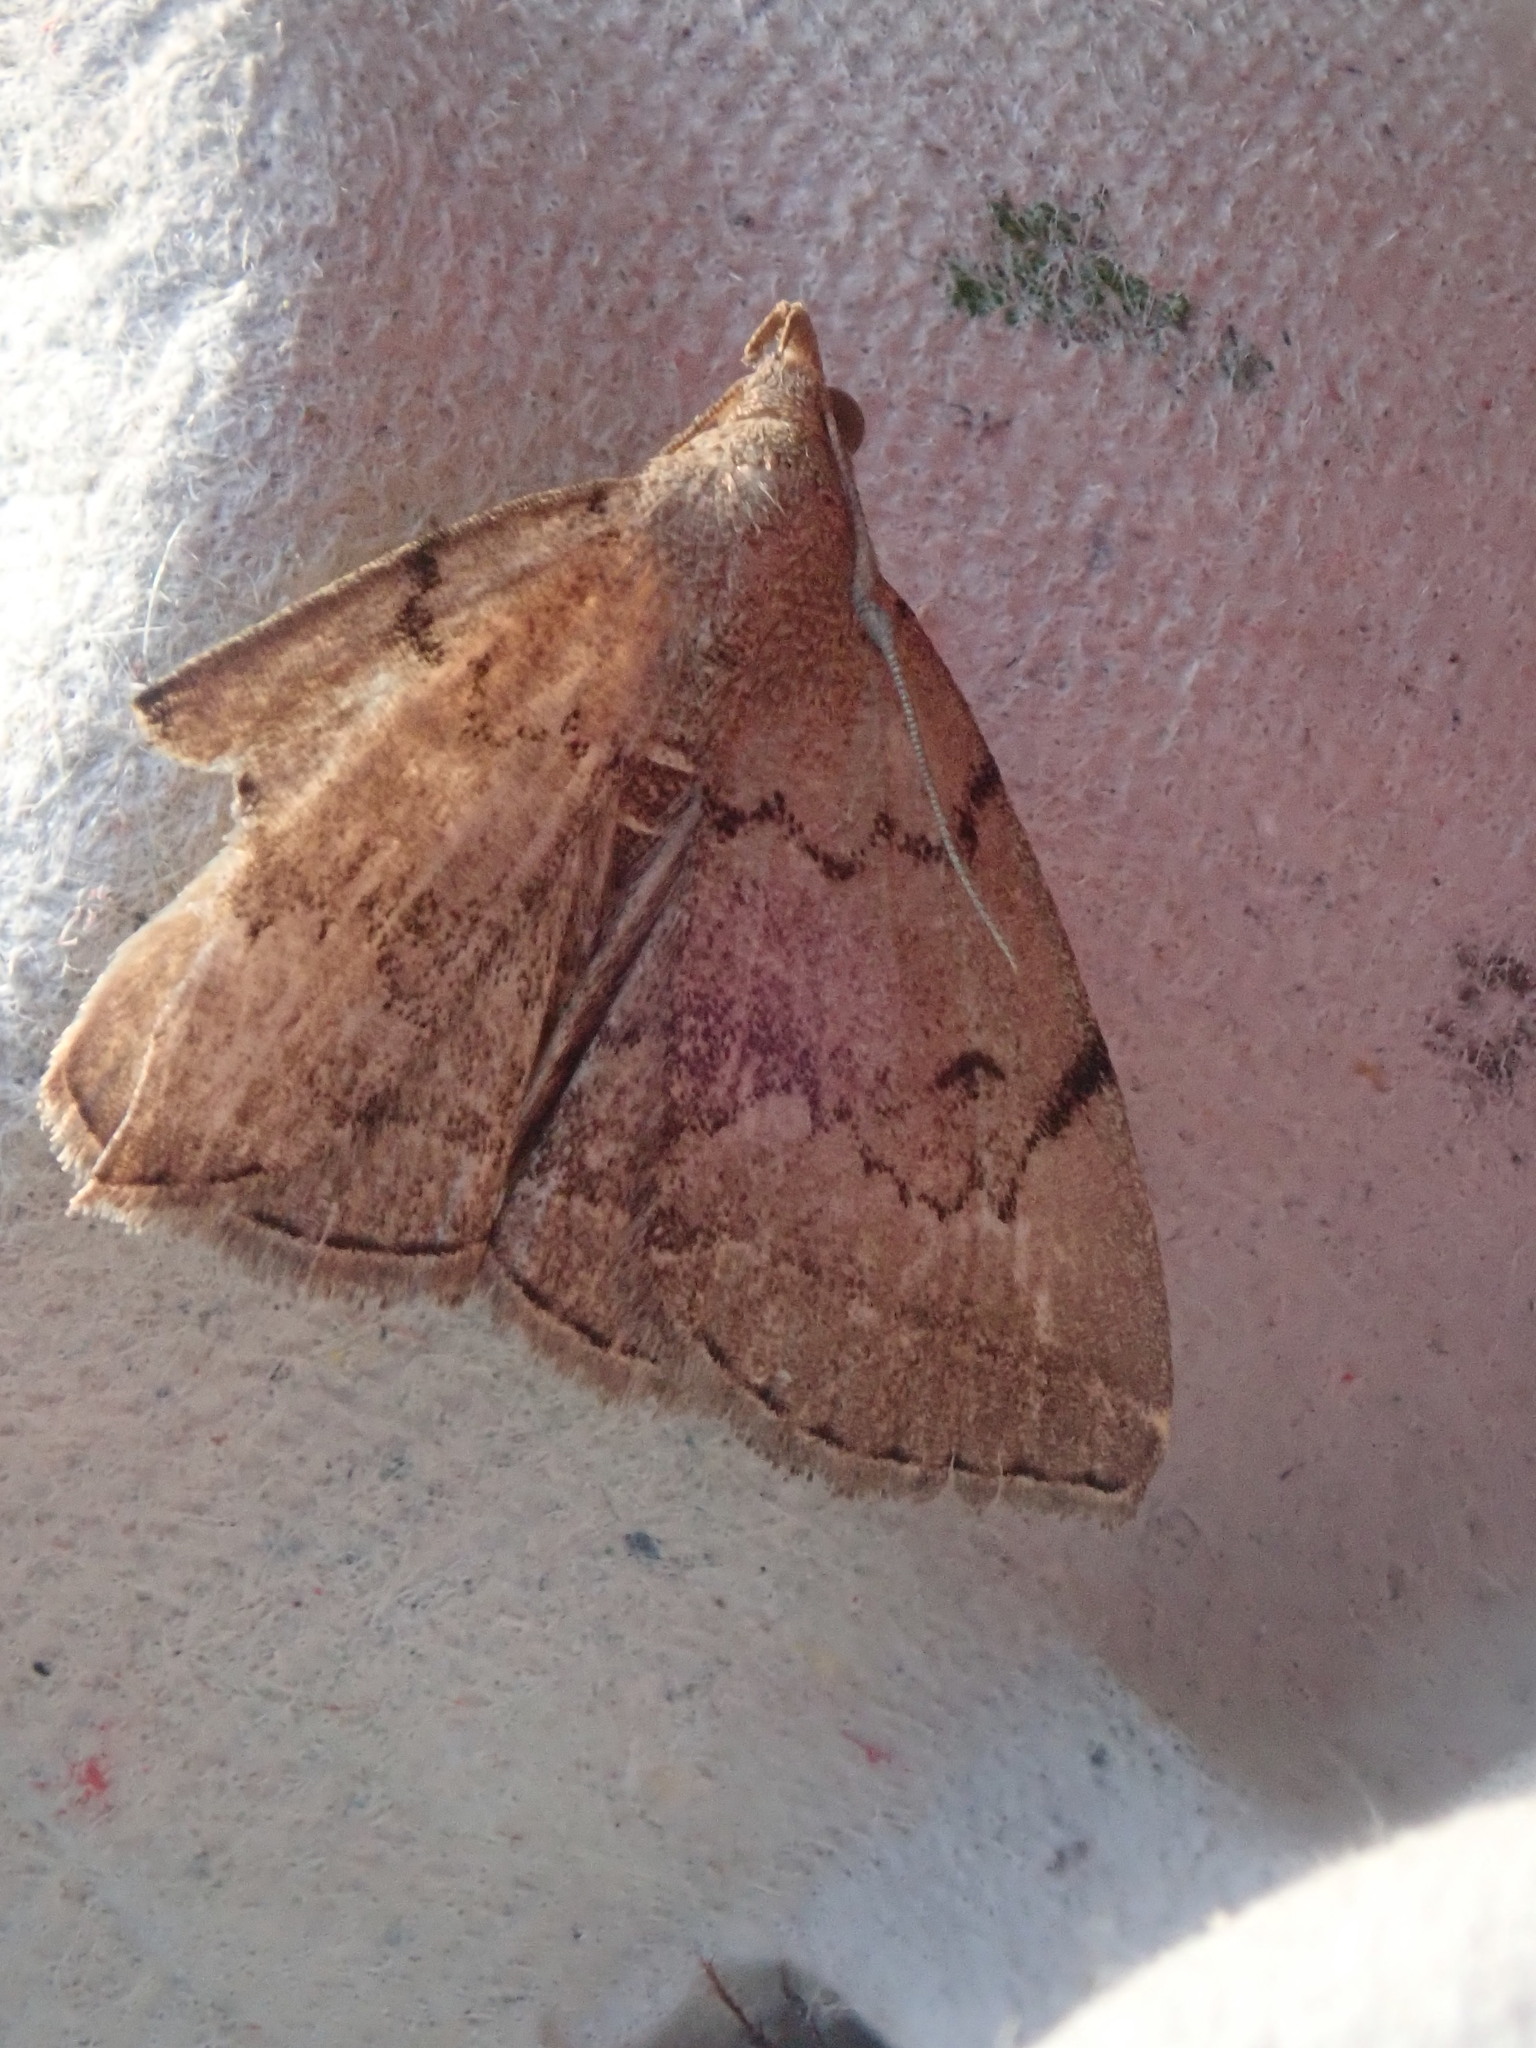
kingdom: Animalia
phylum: Arthropoda
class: Insecta
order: Lepidoptera
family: Erebidae
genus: Zanclognatha
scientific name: Zanclognatha dentata
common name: Toothed fan-foot
